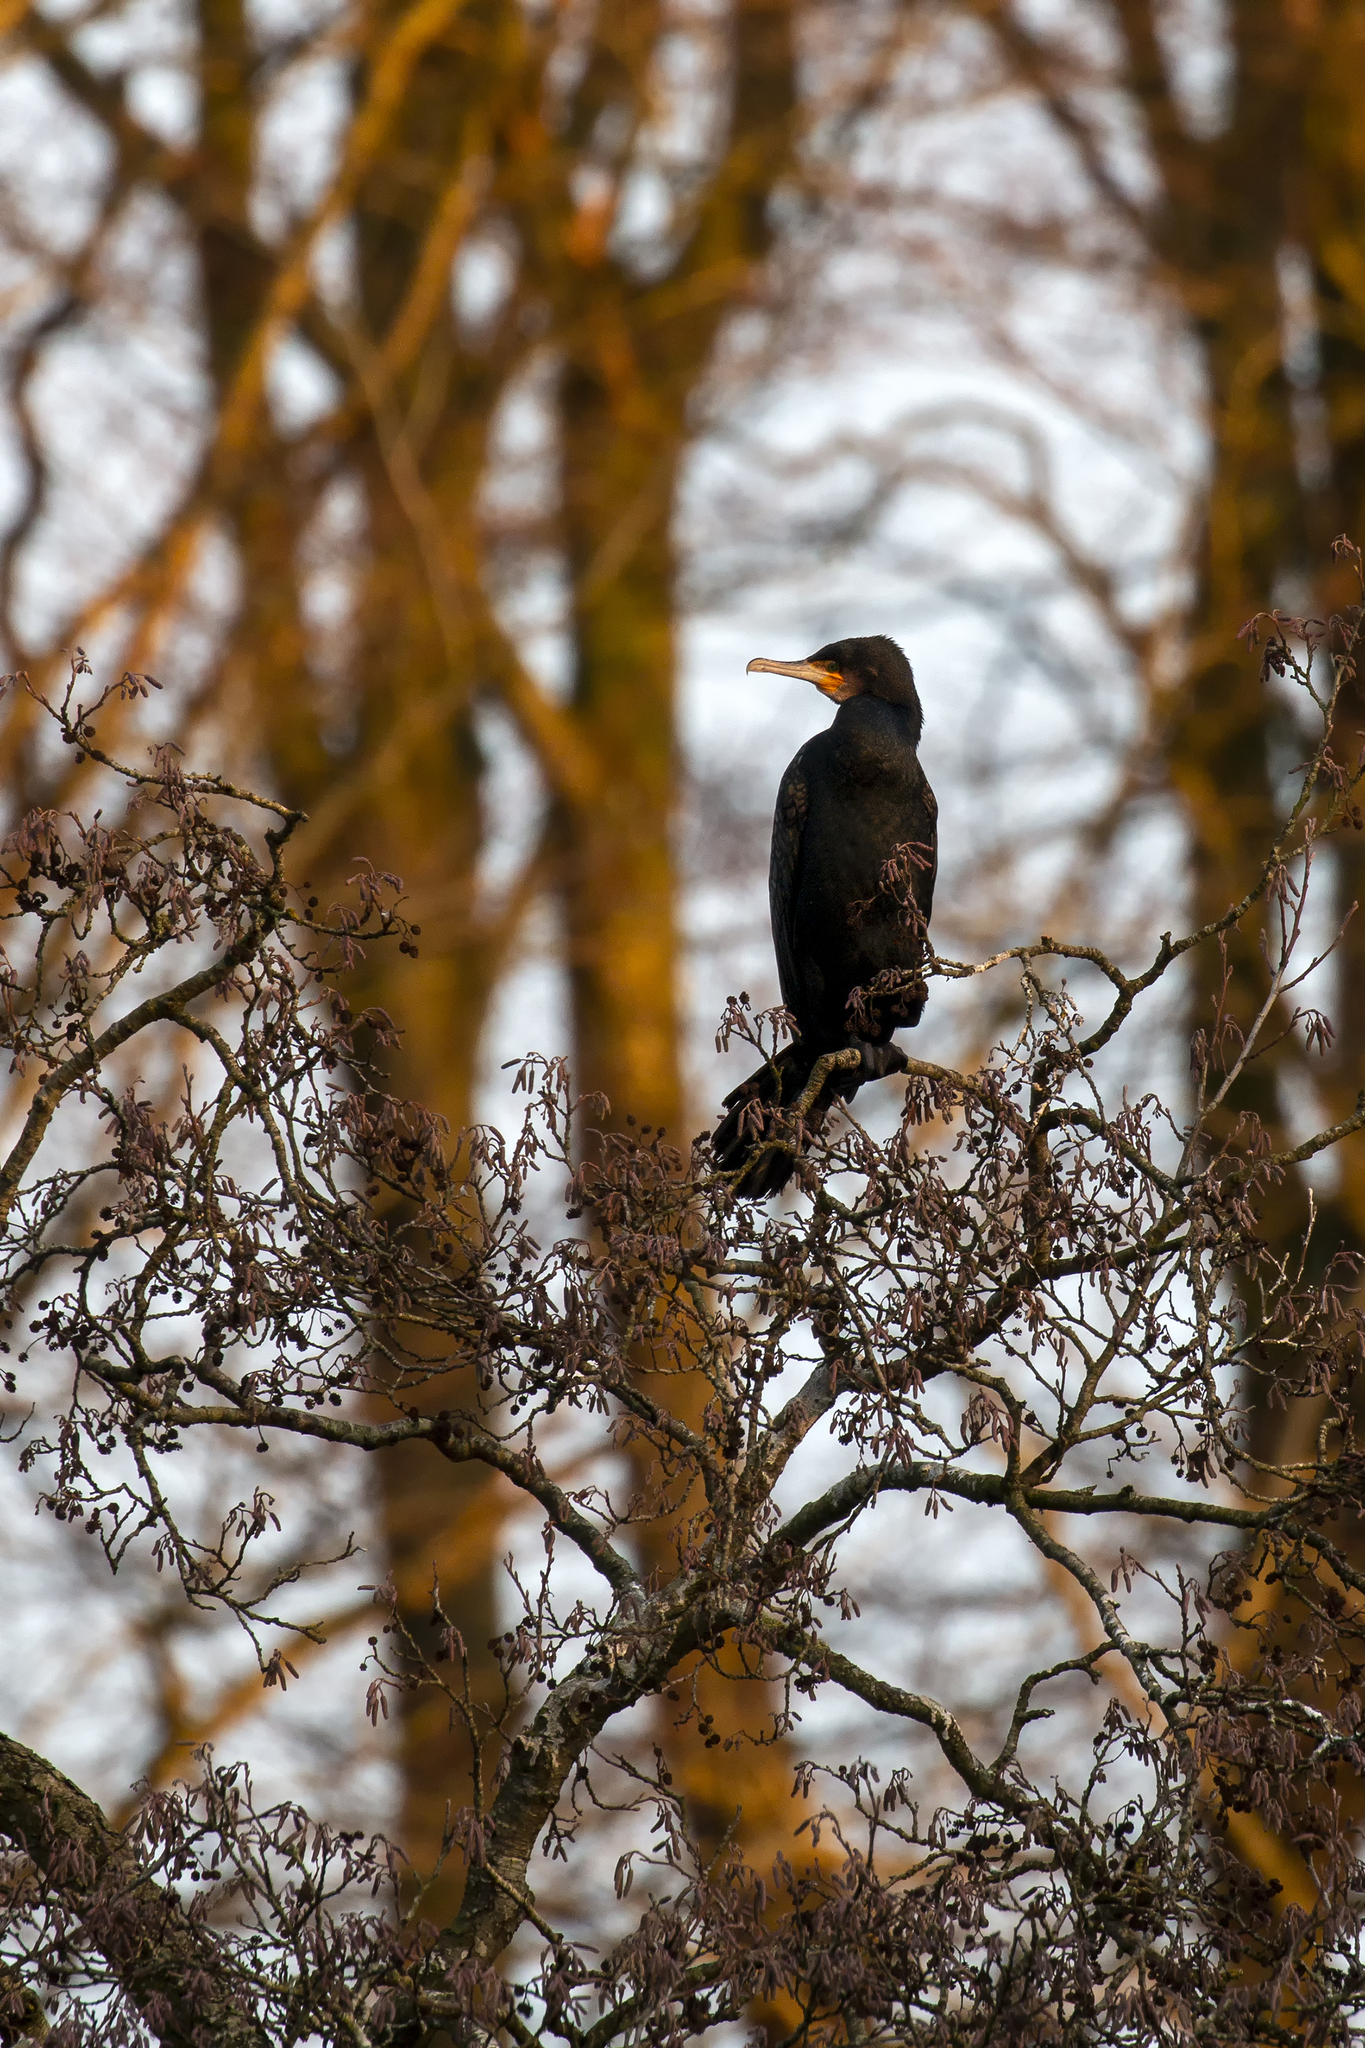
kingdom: Animalia
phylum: Chordata
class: Aves
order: Suliformes
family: Phalacrocoracidae
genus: Phalacrocorax
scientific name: Phalacrocorax carbo
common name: Great cormorant
